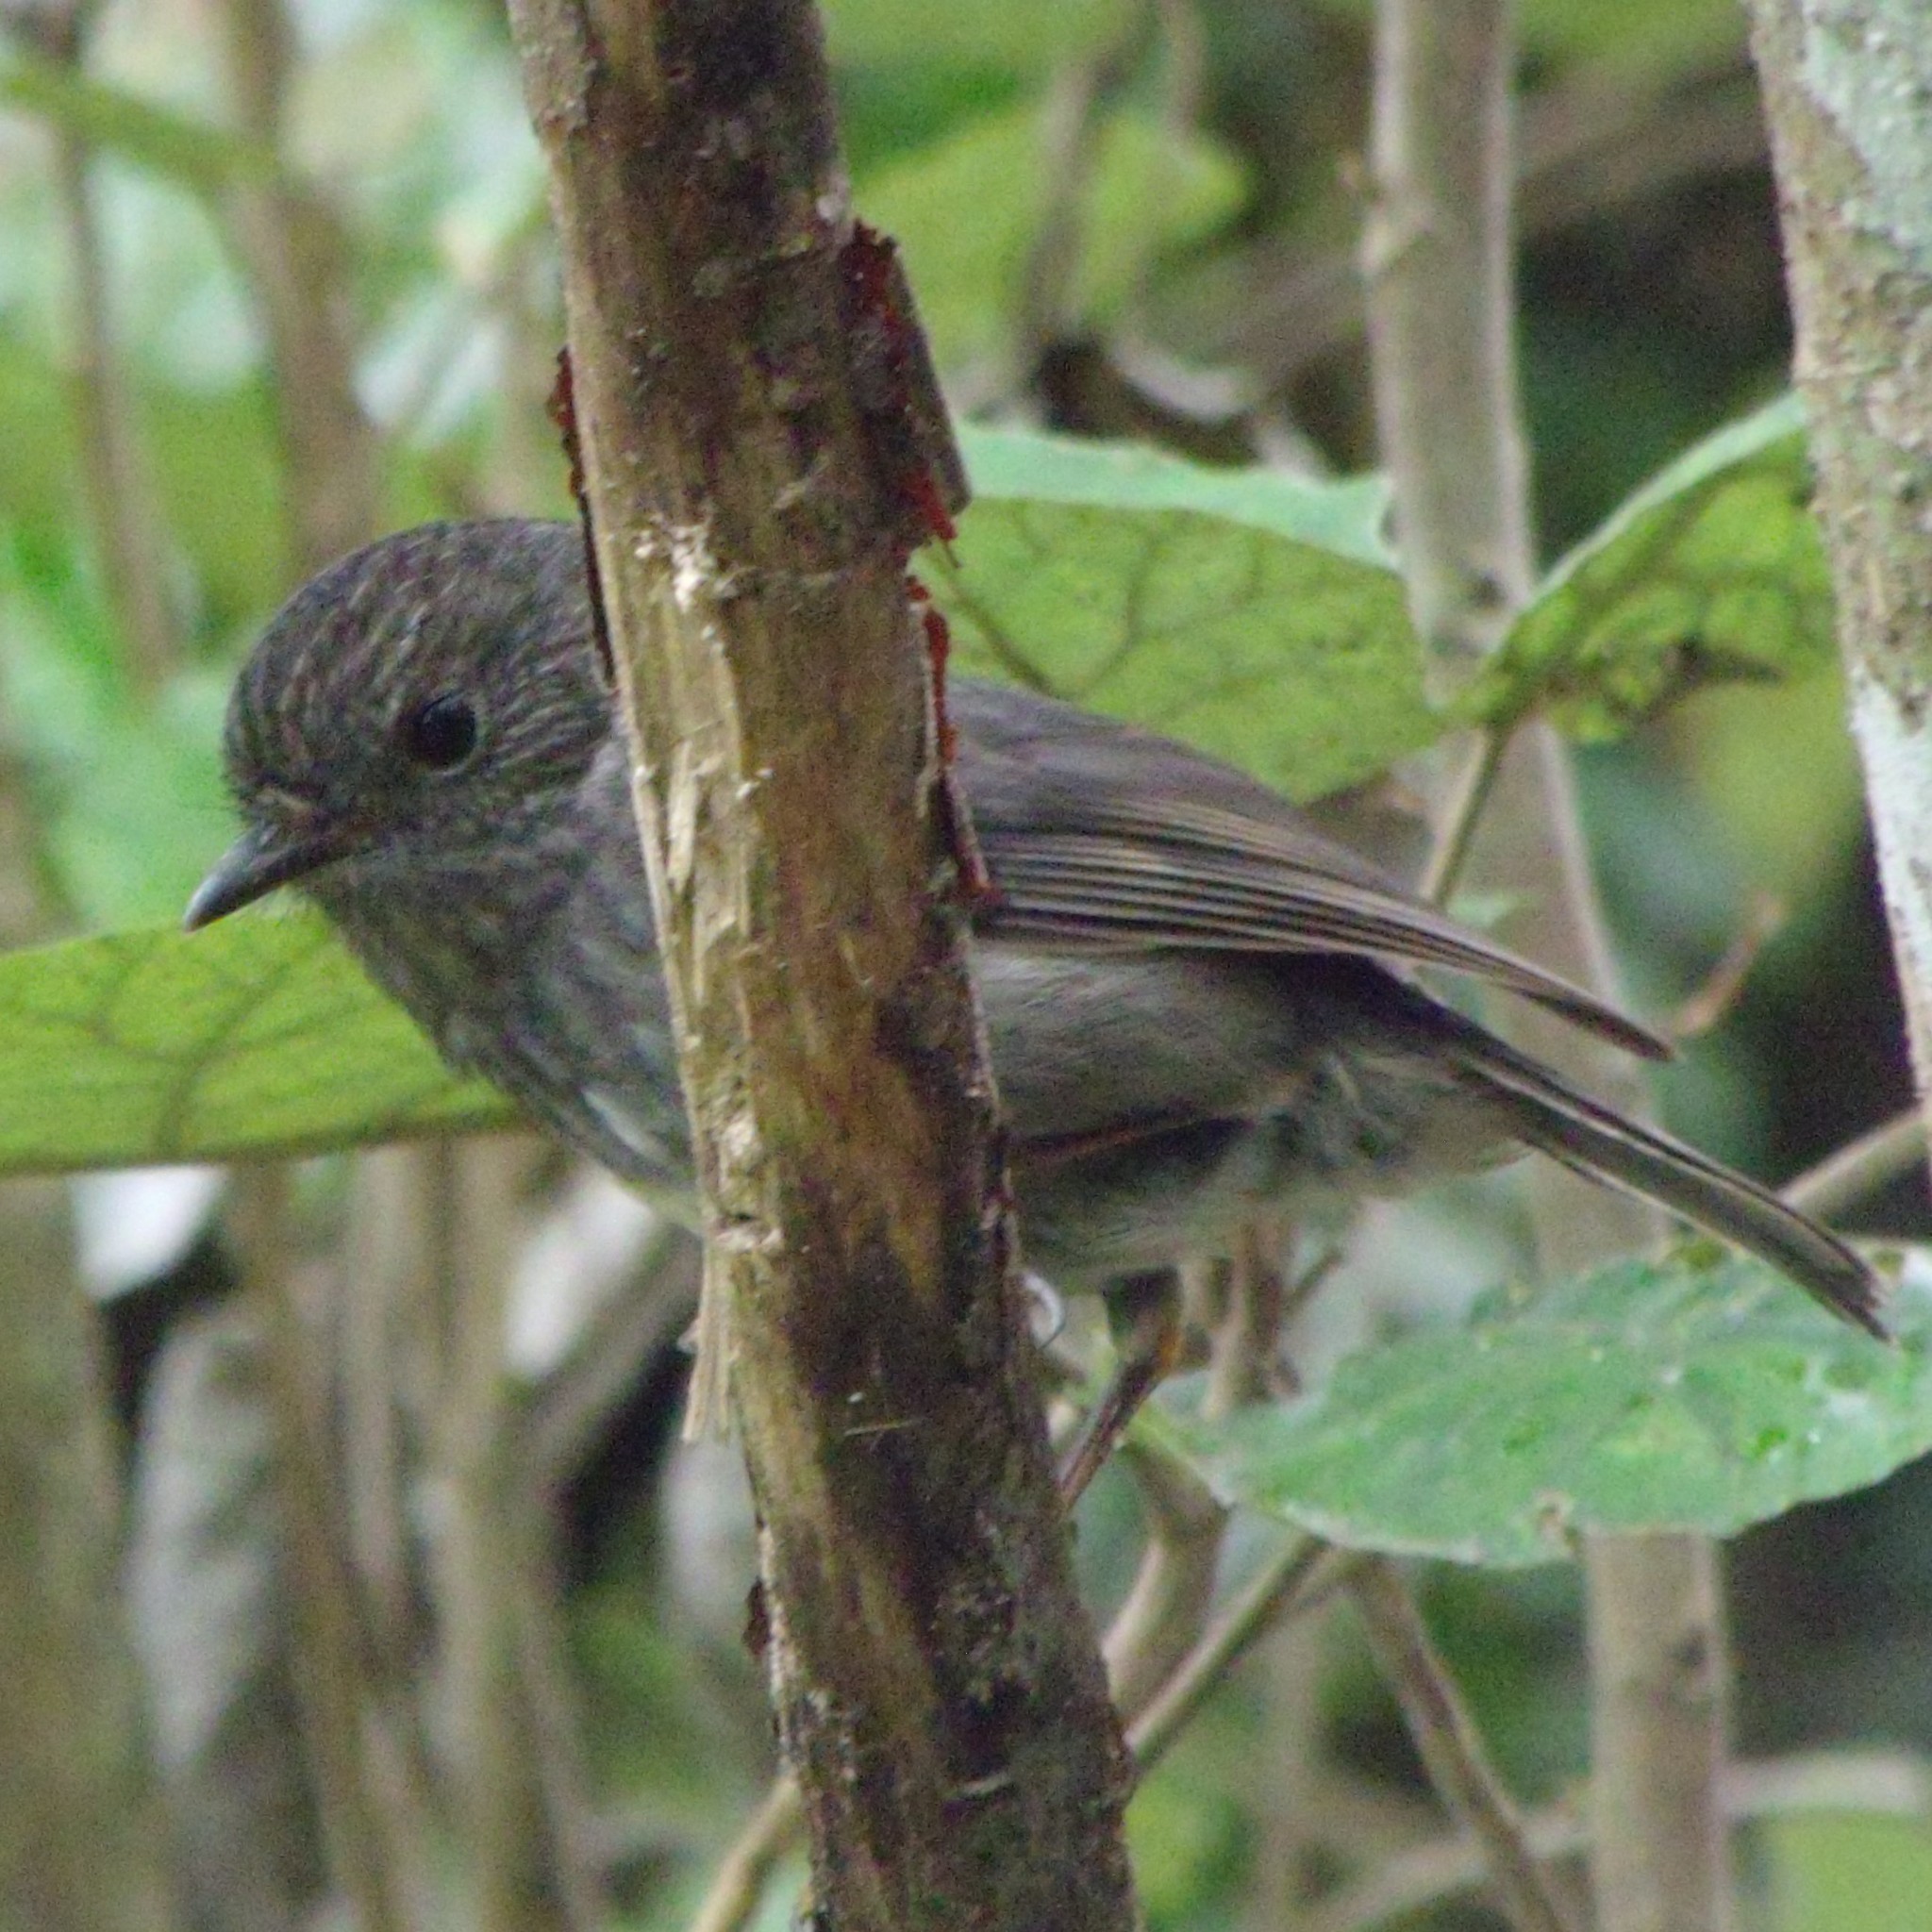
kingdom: Animalia
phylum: Chordata
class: Aves
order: Passeriformes
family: Petroicidae
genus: Petroica
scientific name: Petroica australis
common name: New zealand robin
